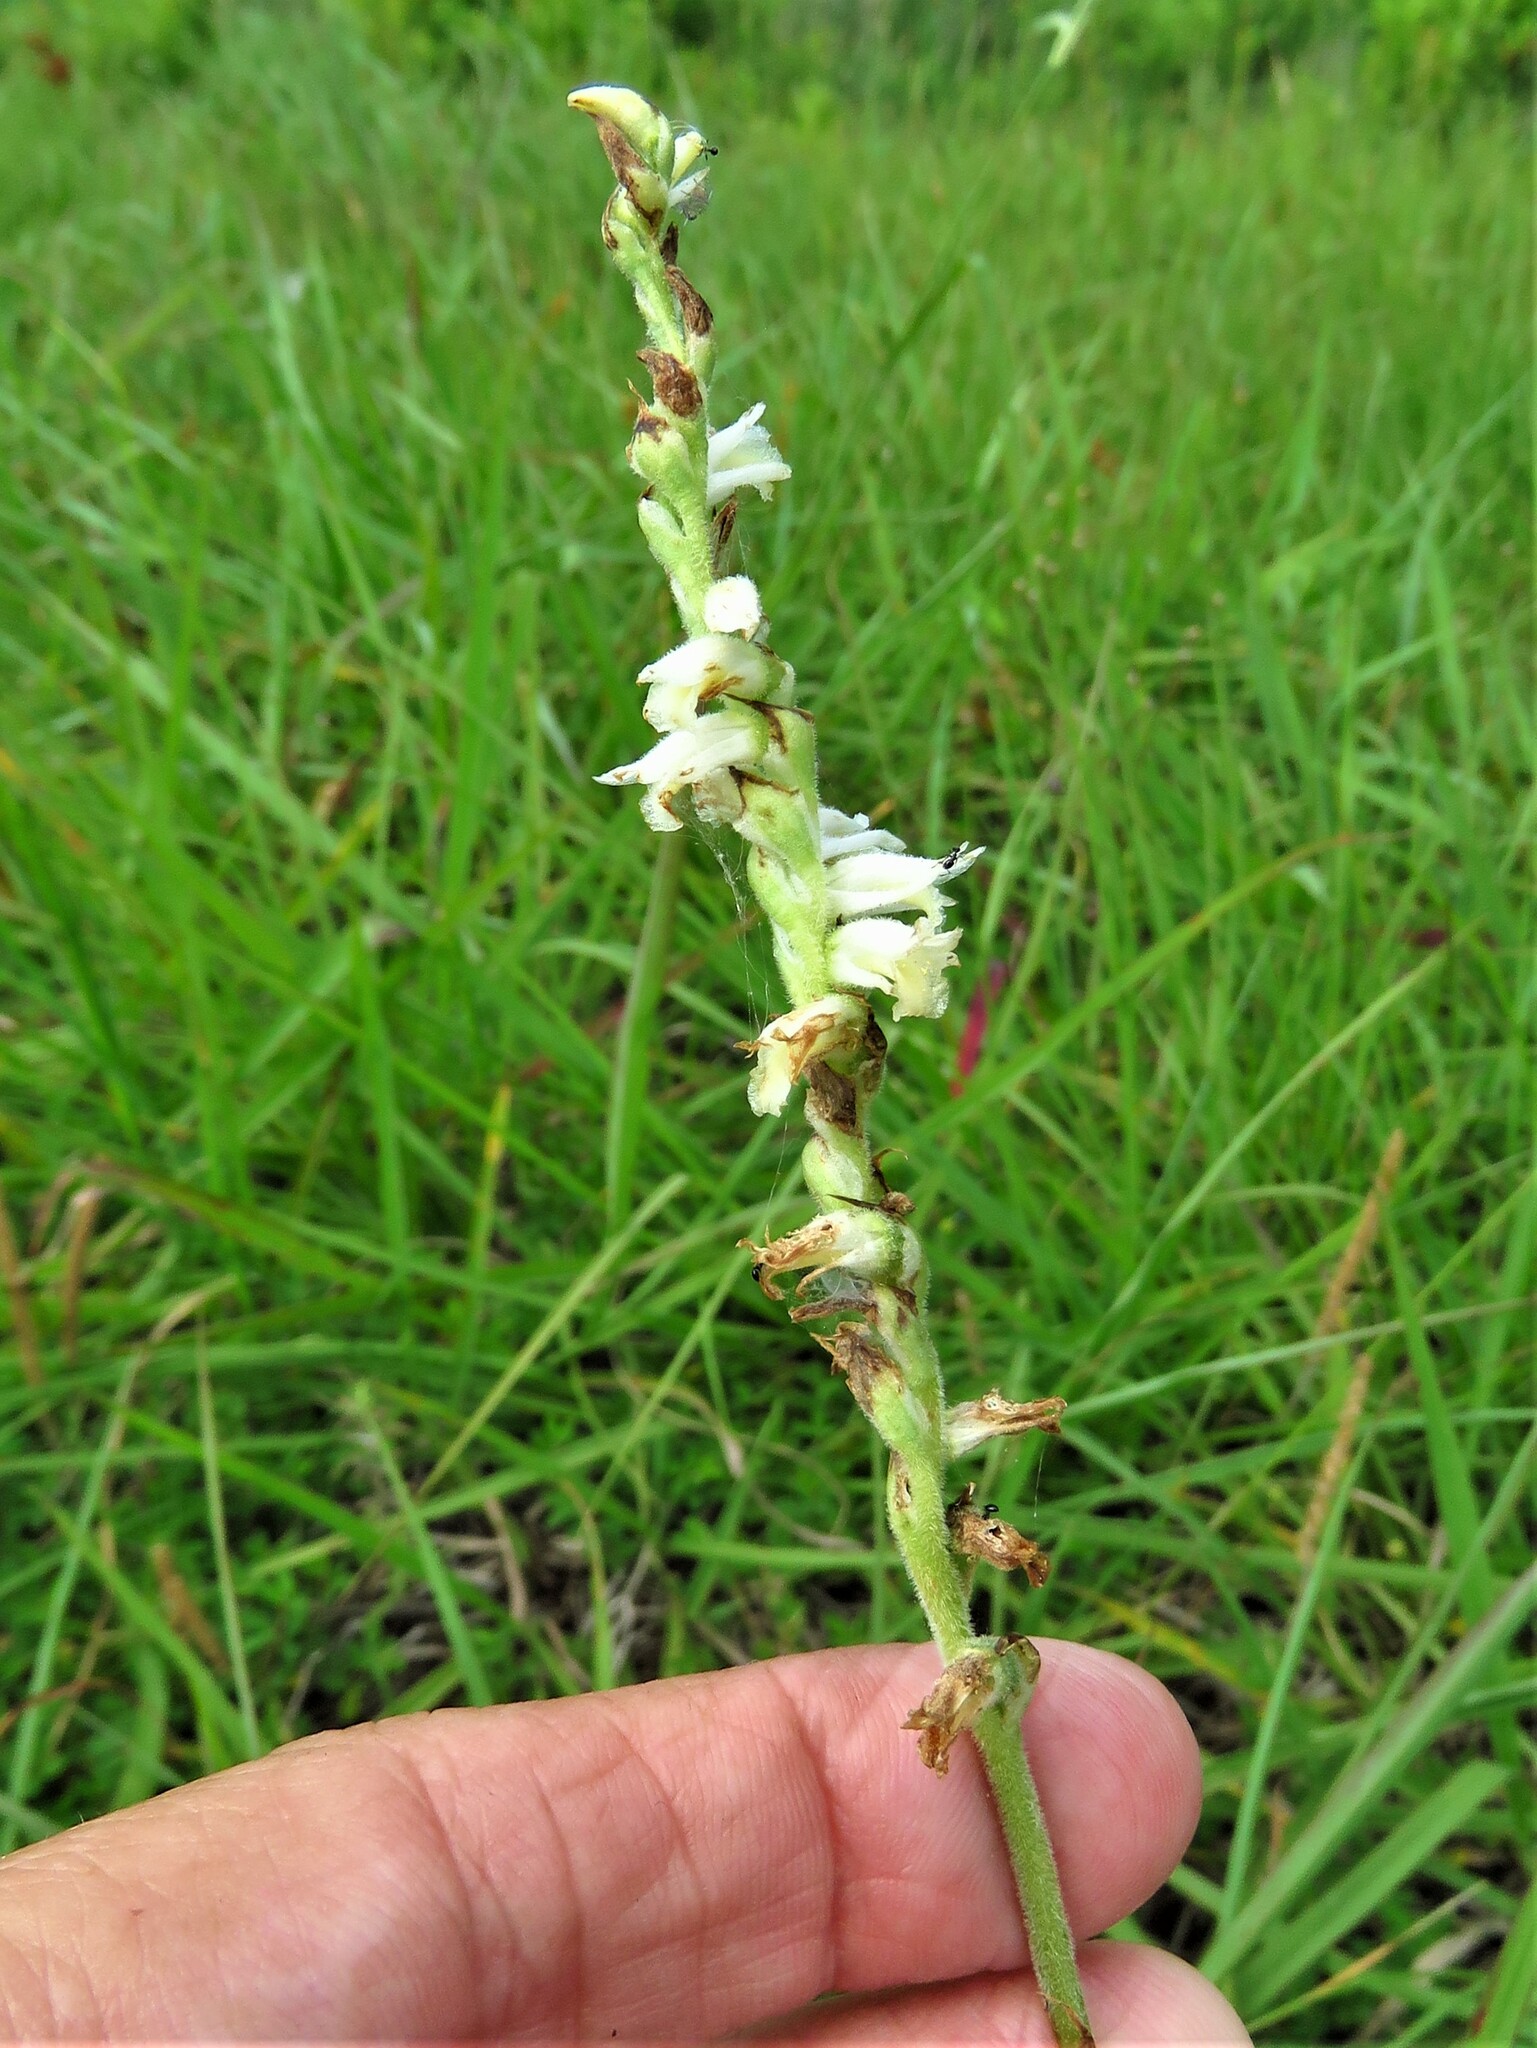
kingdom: Plantae
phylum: Tracheophyta
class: Liliopsida
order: Asparagales
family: Orchidaceae
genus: Spiranthes
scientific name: Spiranthes vernalis
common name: Spring ladies'-tresses
